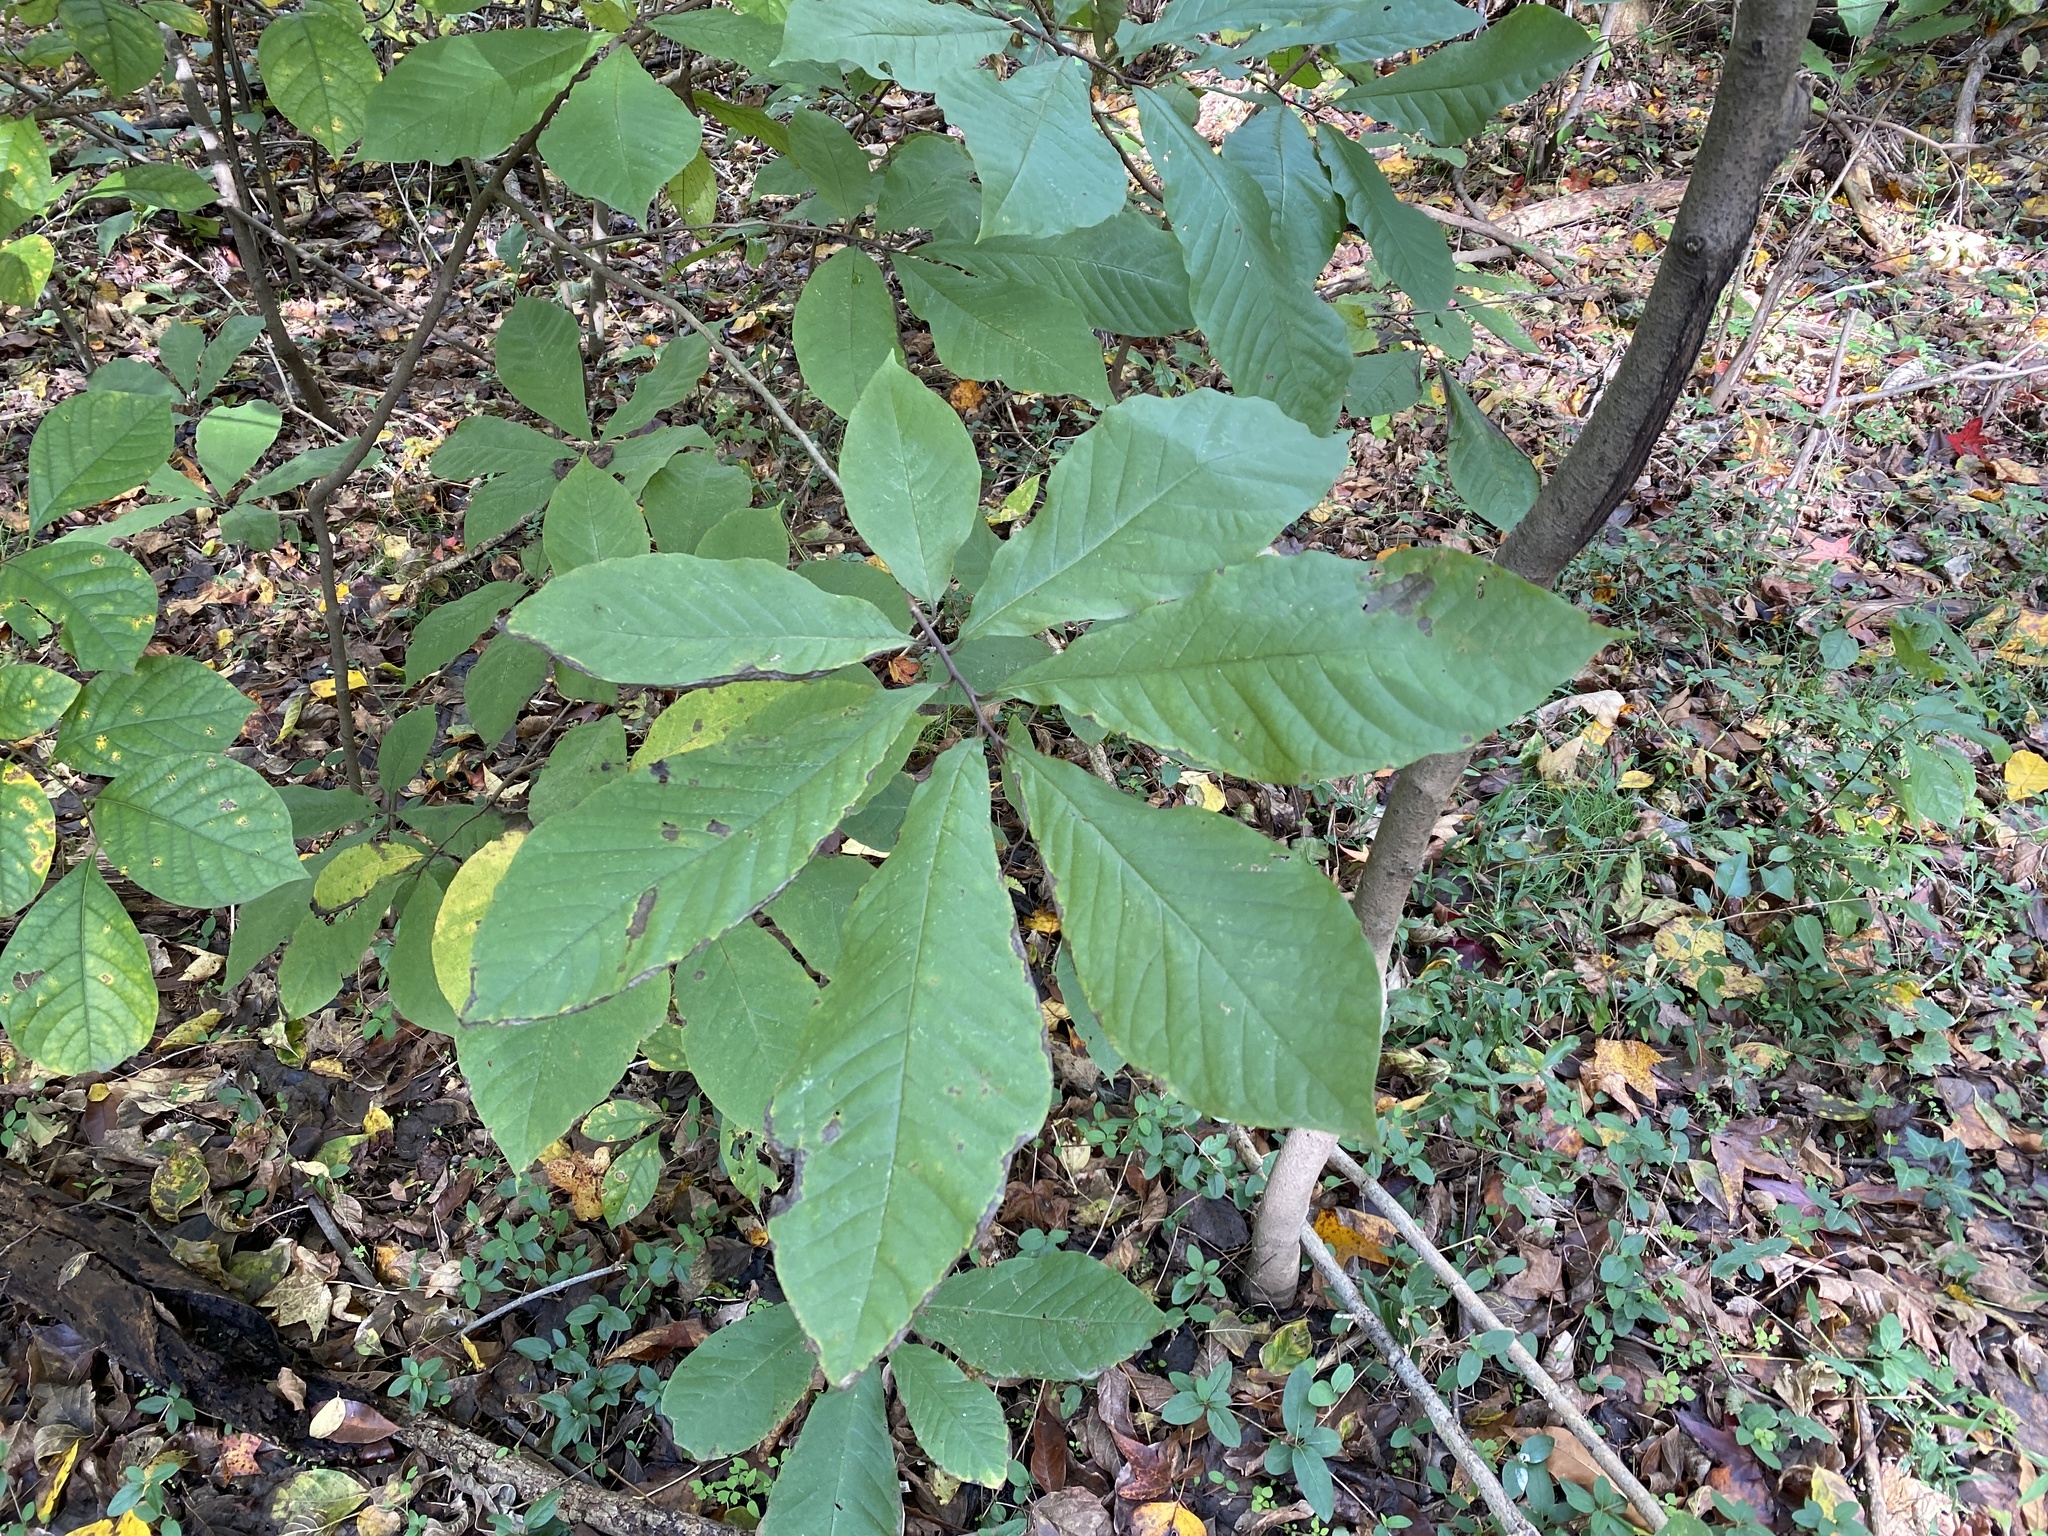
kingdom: Plantae
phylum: Tracheophyta
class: Magnoliopsida
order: Magnoliales
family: Annonaceae
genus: Asimina
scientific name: Asimina triloba
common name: Dog-banana
